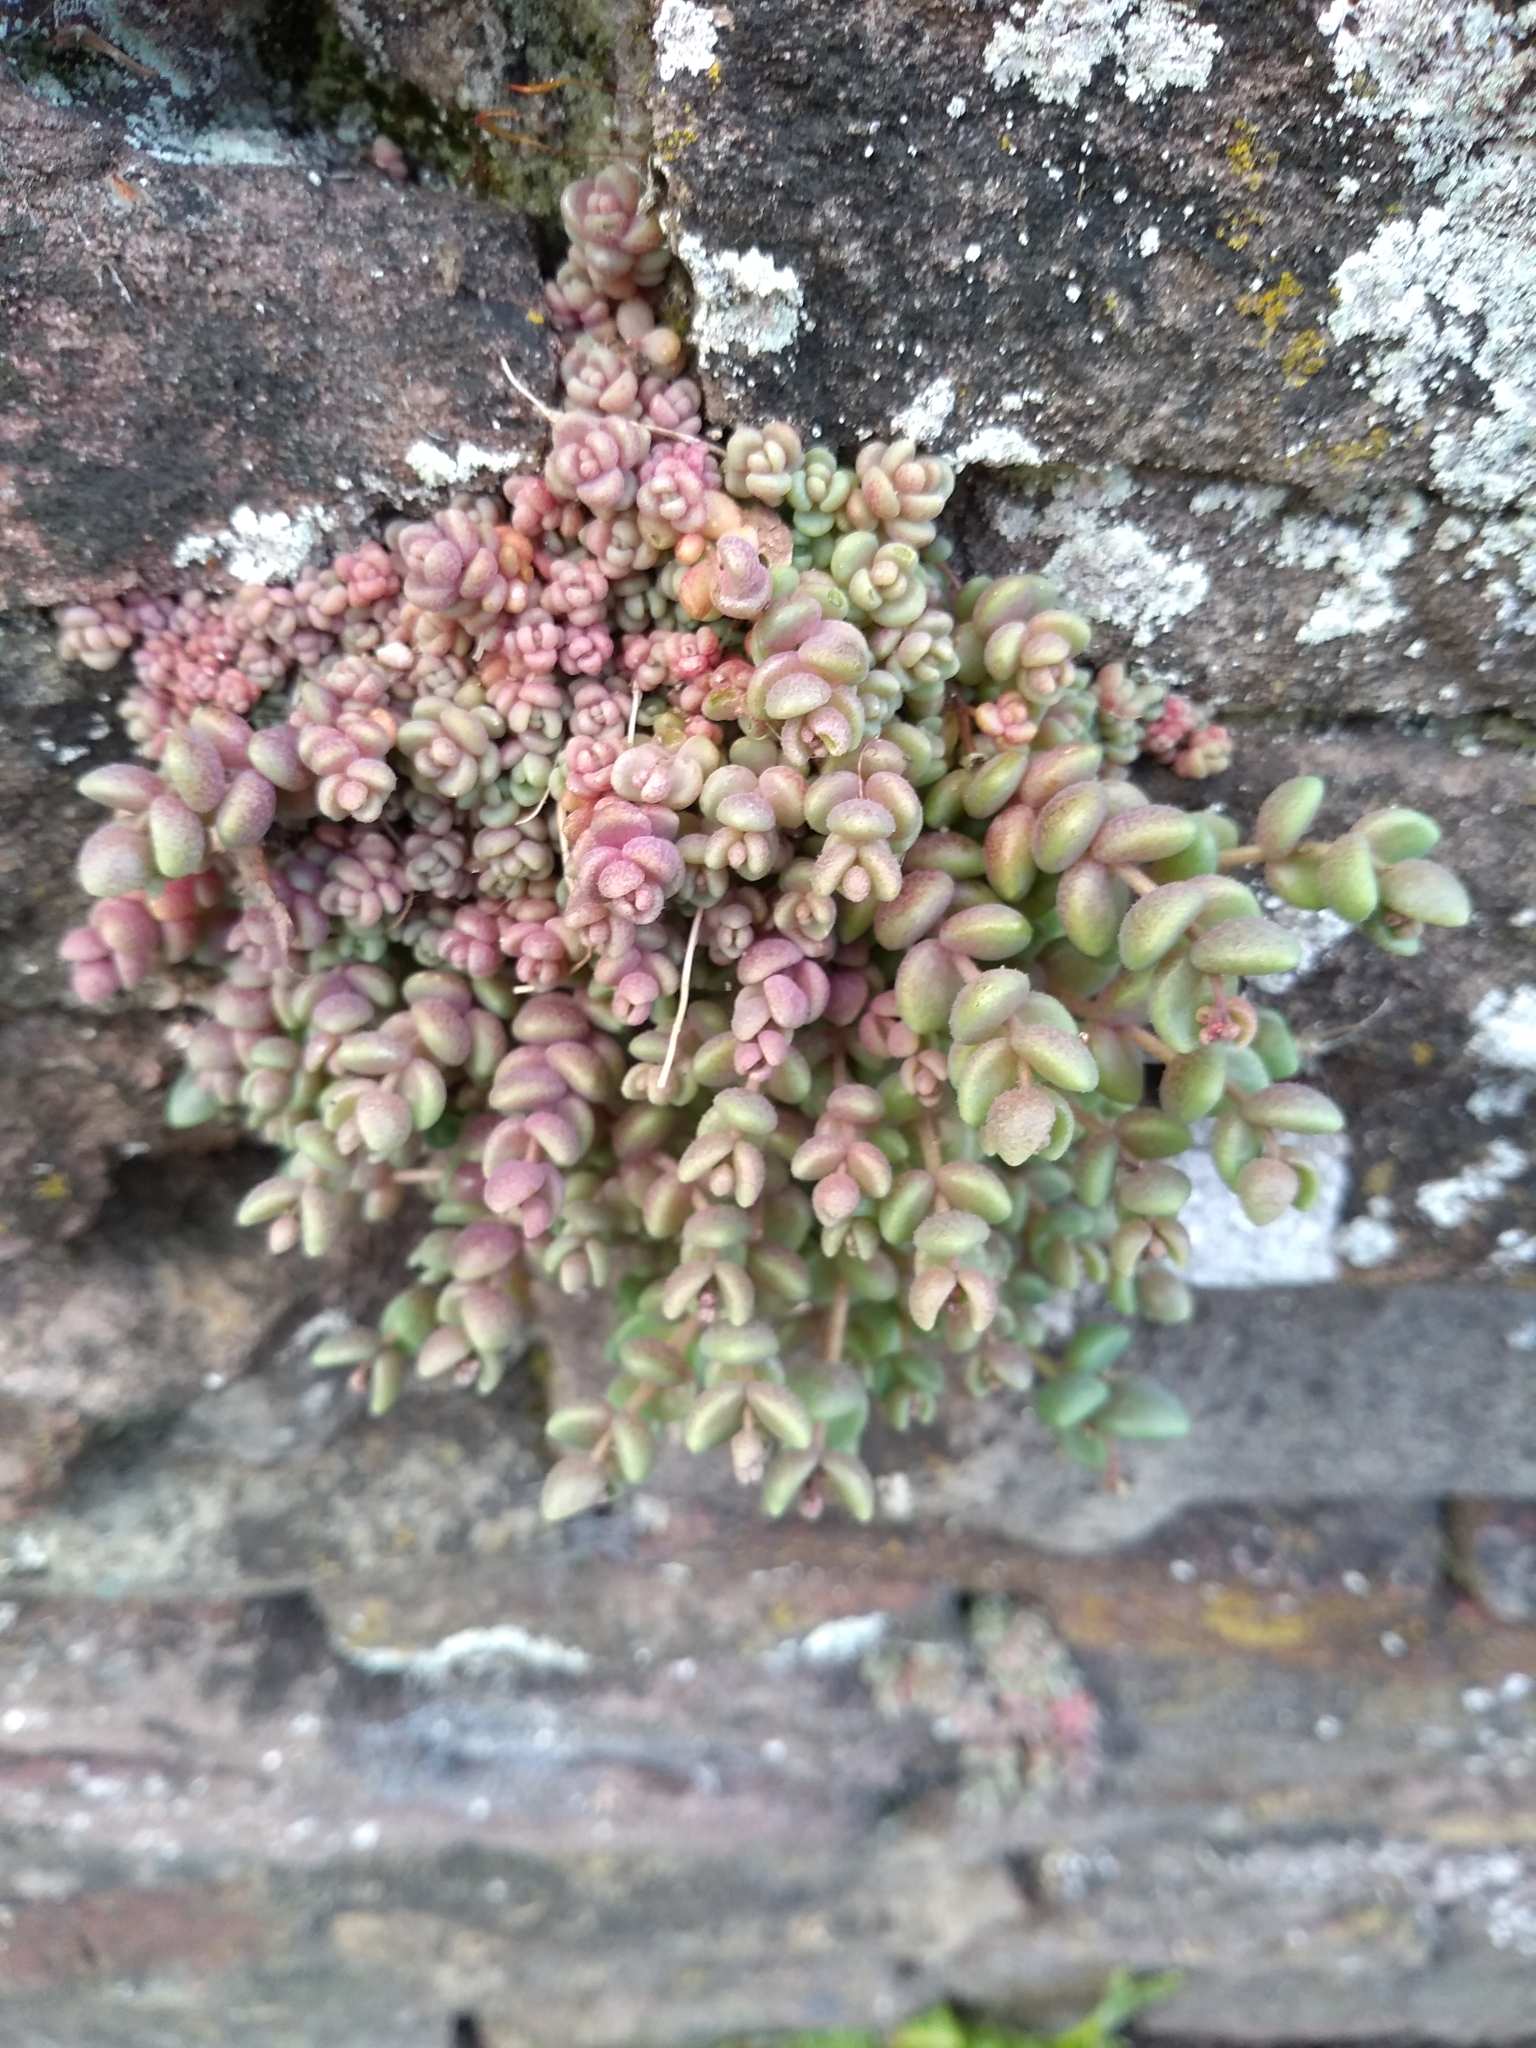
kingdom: Plantae
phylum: Tracheophyta
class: Magnoliopsida
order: Saxifragales
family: Crassulaceae
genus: Sedum
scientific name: Sedum dasyphyllum
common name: Thick-leaf stonecrop
